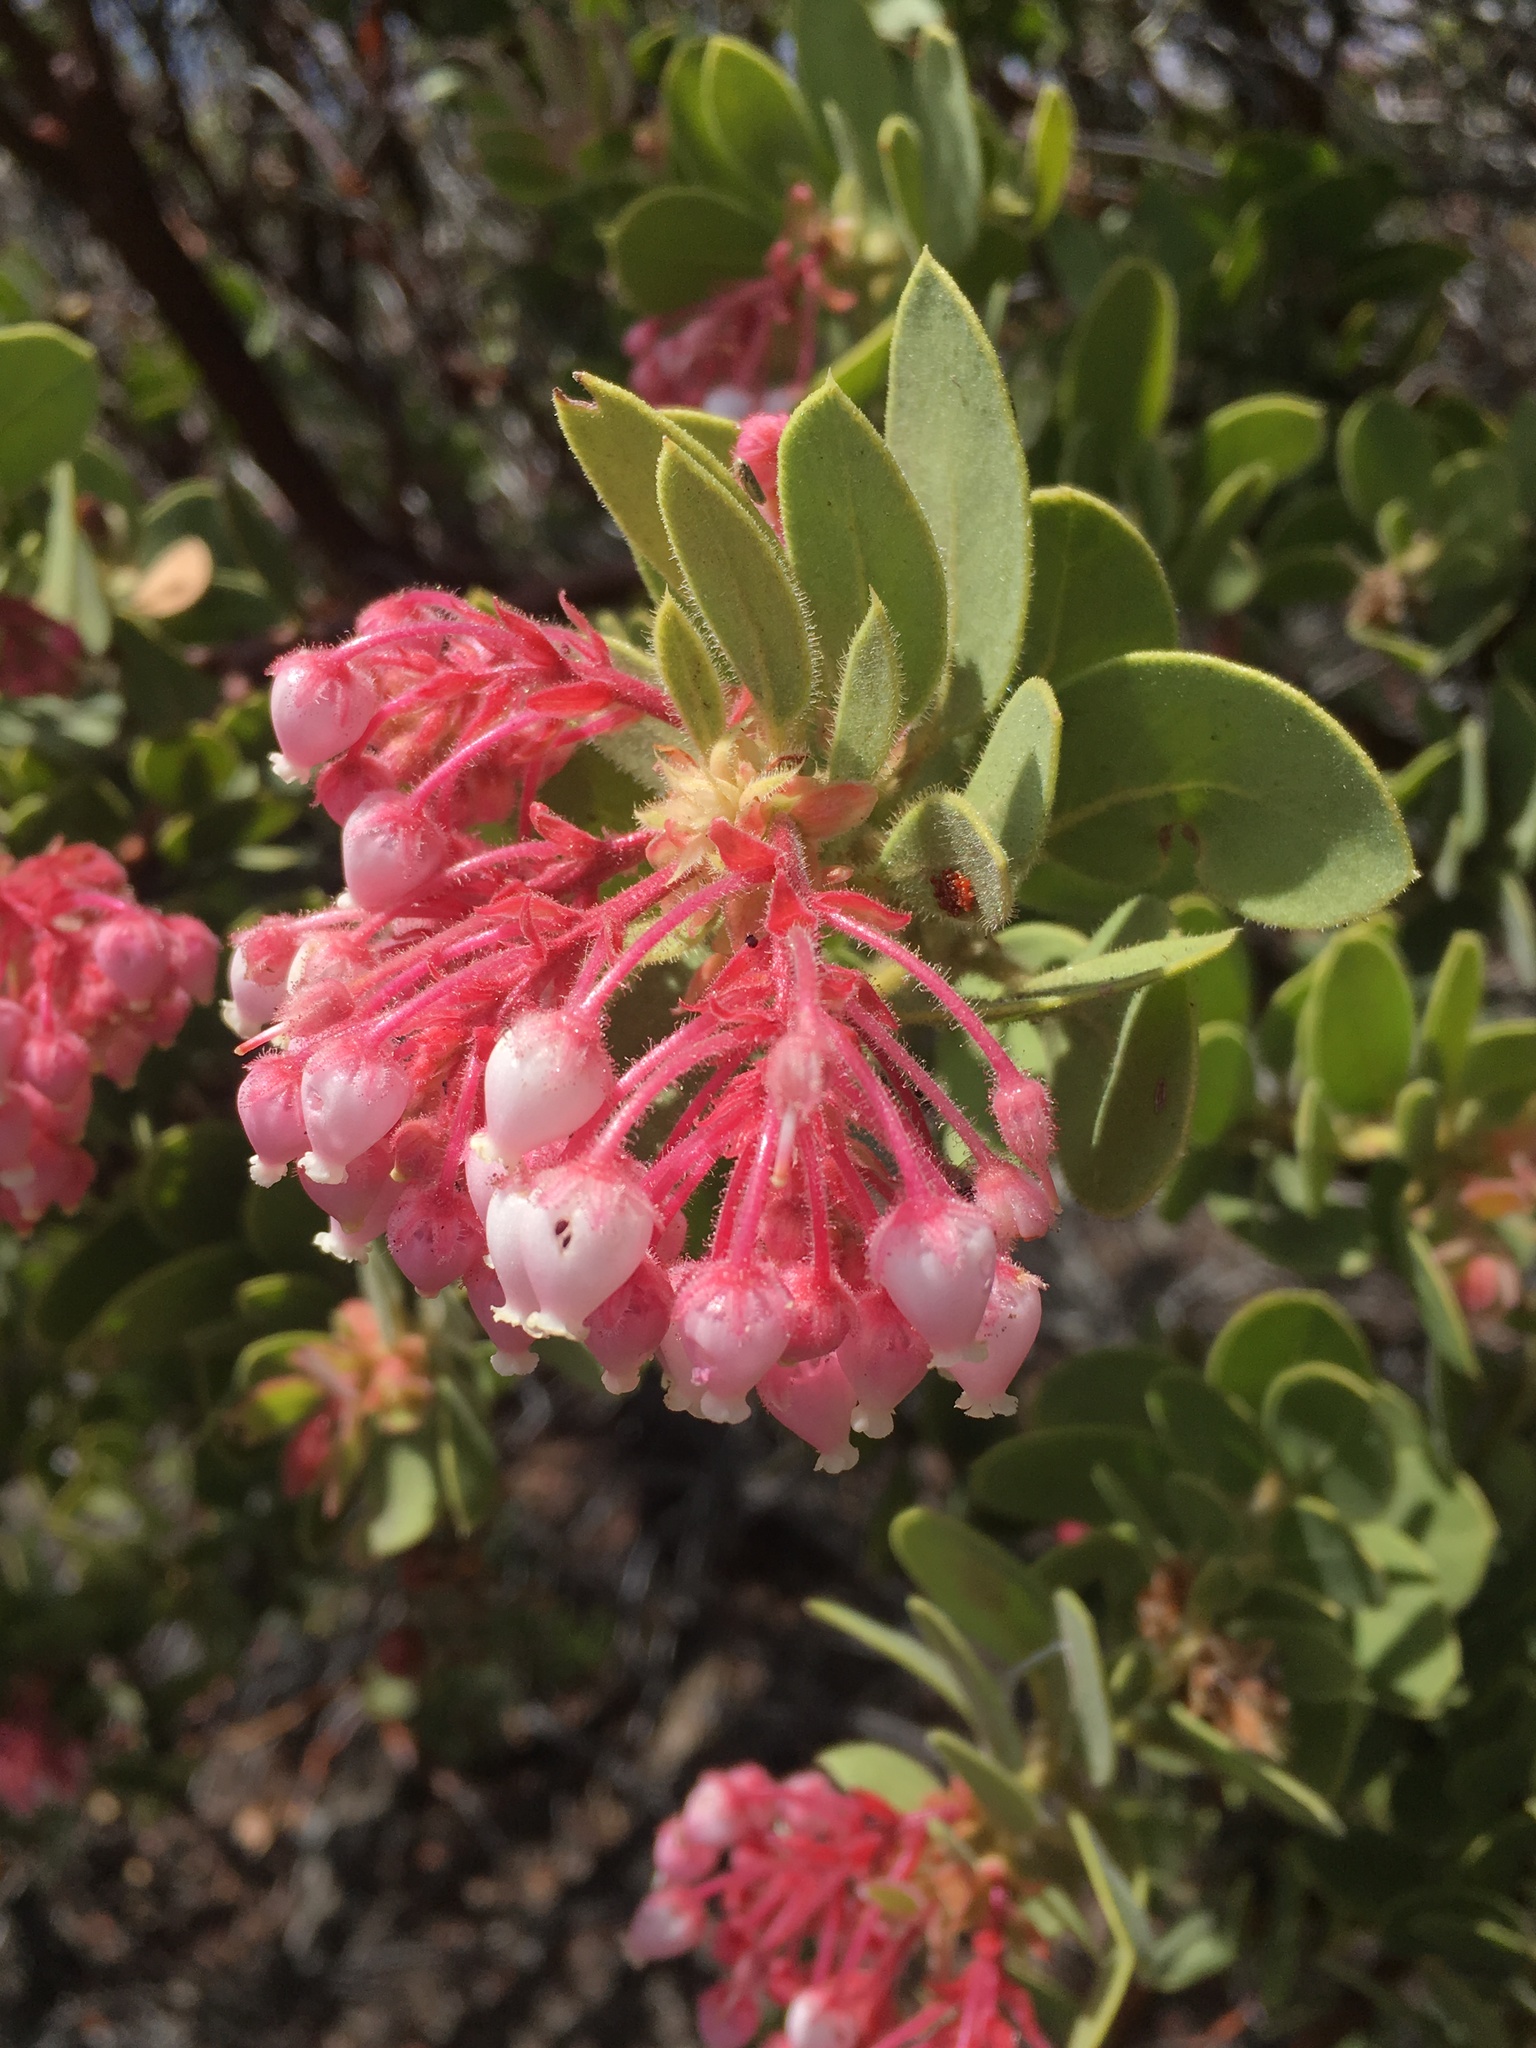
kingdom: Plantae
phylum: Tracheophyta
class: Magnoliopsida
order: Ericales
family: Ericaceae
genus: Arctostaphylos
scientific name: Arctostaphylos pringlei
